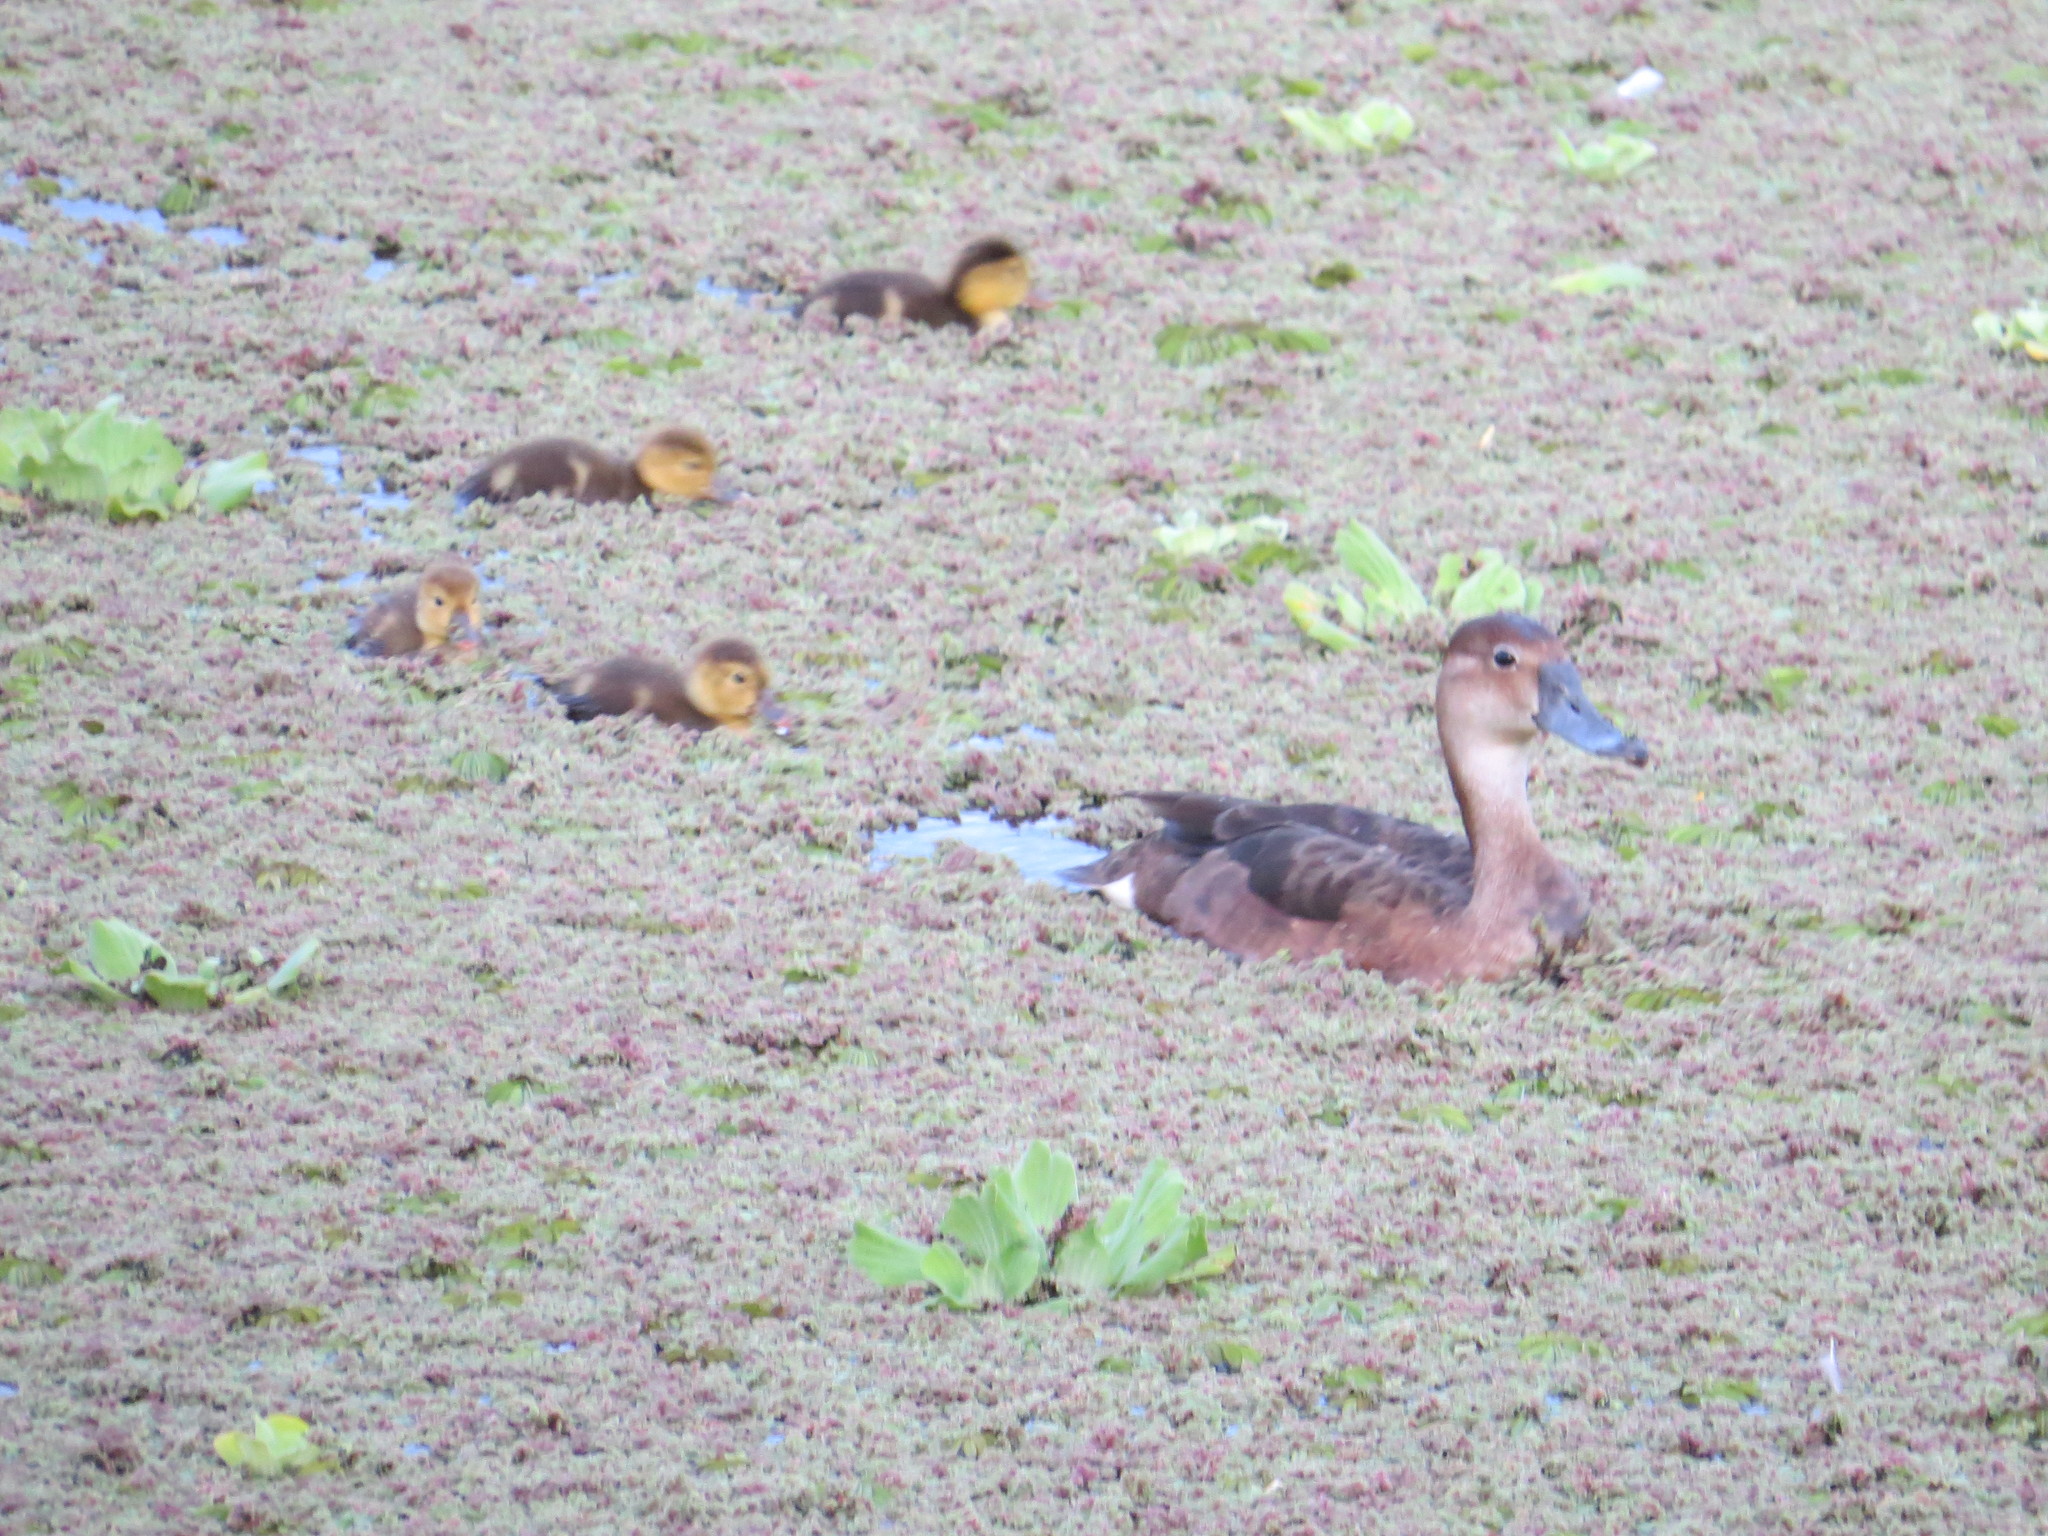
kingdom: Animalia
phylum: Chordata
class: Aves
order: Anseriformes
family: Anatidae
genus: Netta
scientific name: Netta peposaca
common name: Rosy-billed pochard
